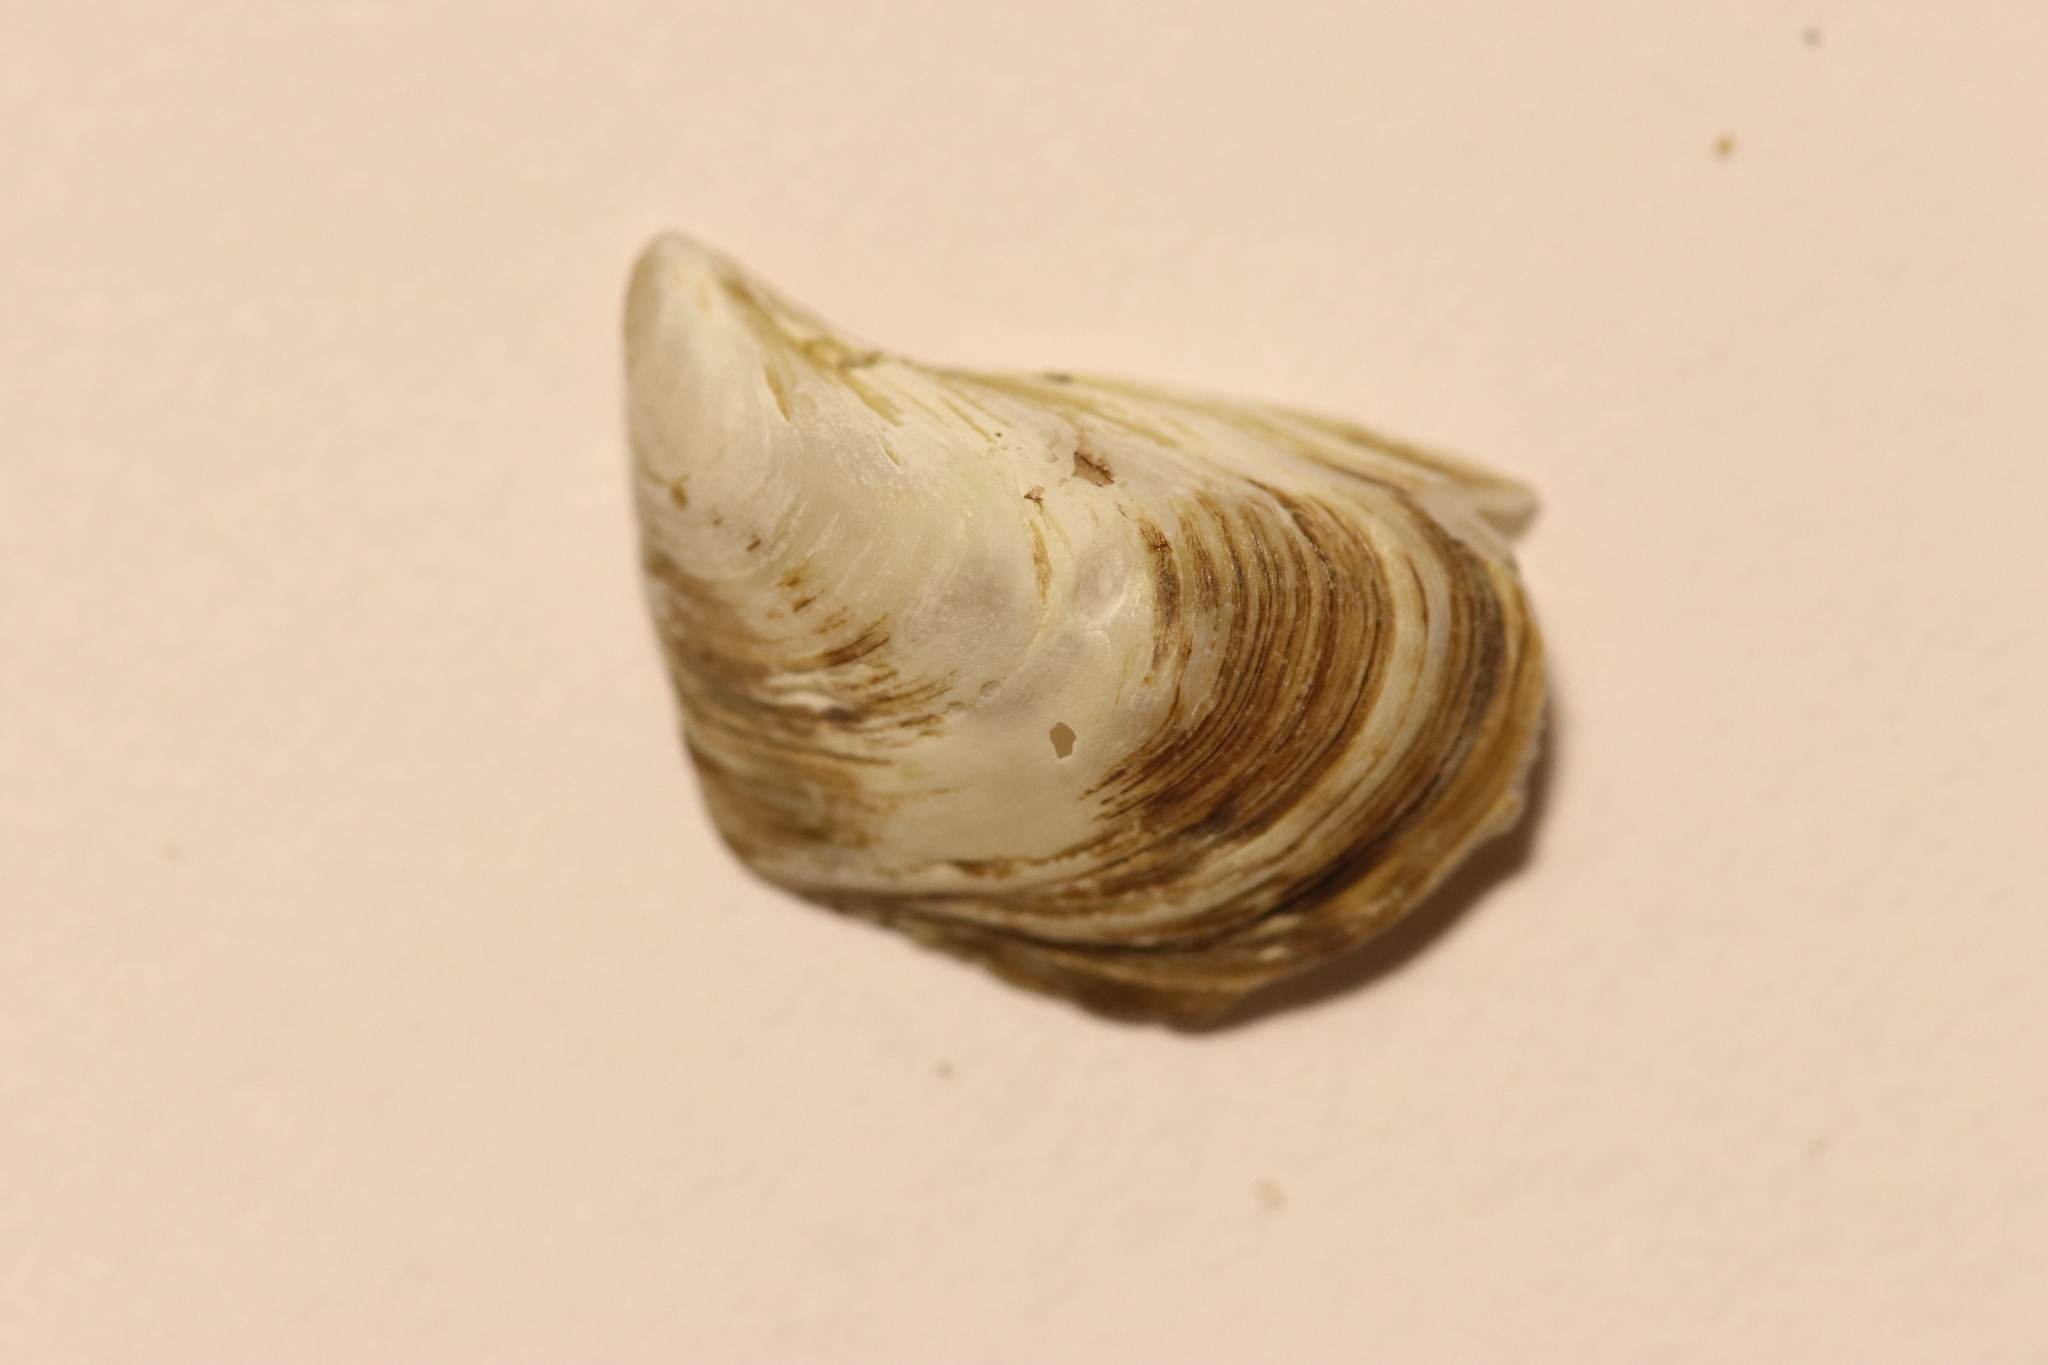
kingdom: Animalia
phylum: Mollusca
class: Bivalvia
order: Myida
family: Dreissenidae
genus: Dreissena
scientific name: Dreissena bugensis
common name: Quagga mussel
